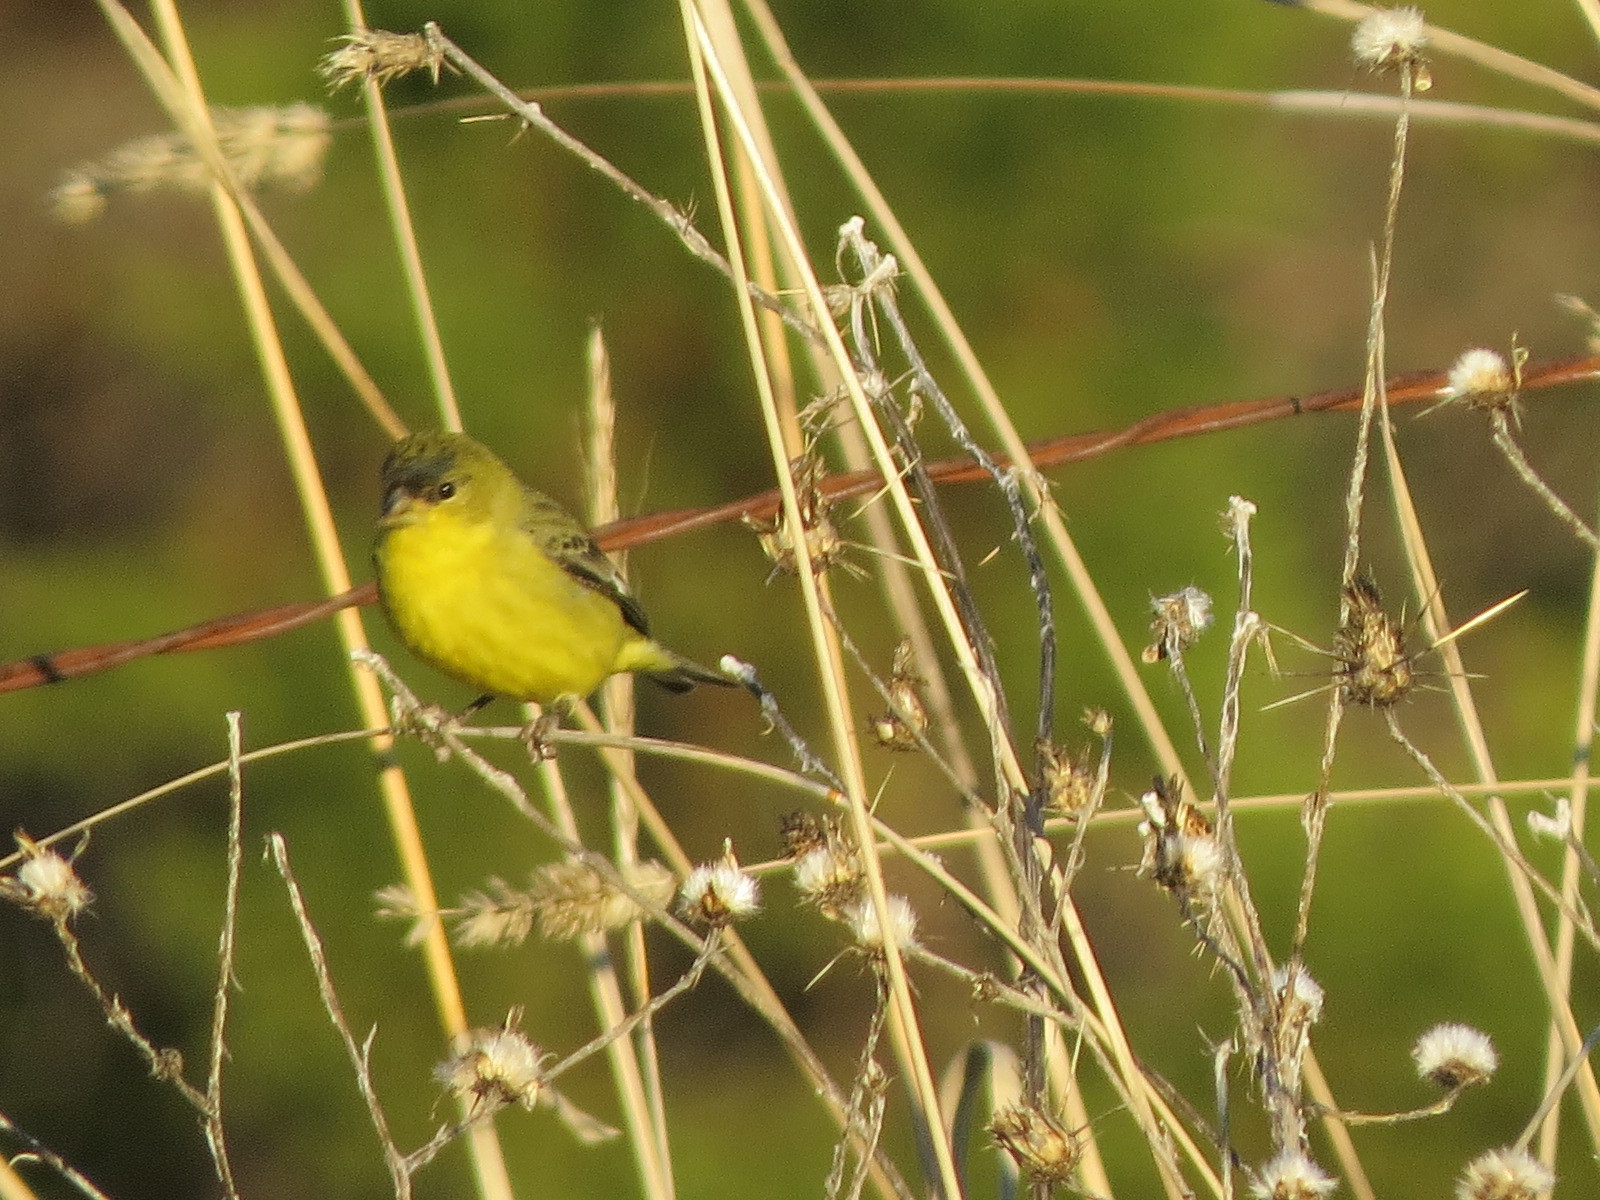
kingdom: Animalia
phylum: Chordata
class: Aves
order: Passeriformes
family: Fringillidae
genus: Spinus
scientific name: Spinus psaltria
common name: Lesser goldfinch
